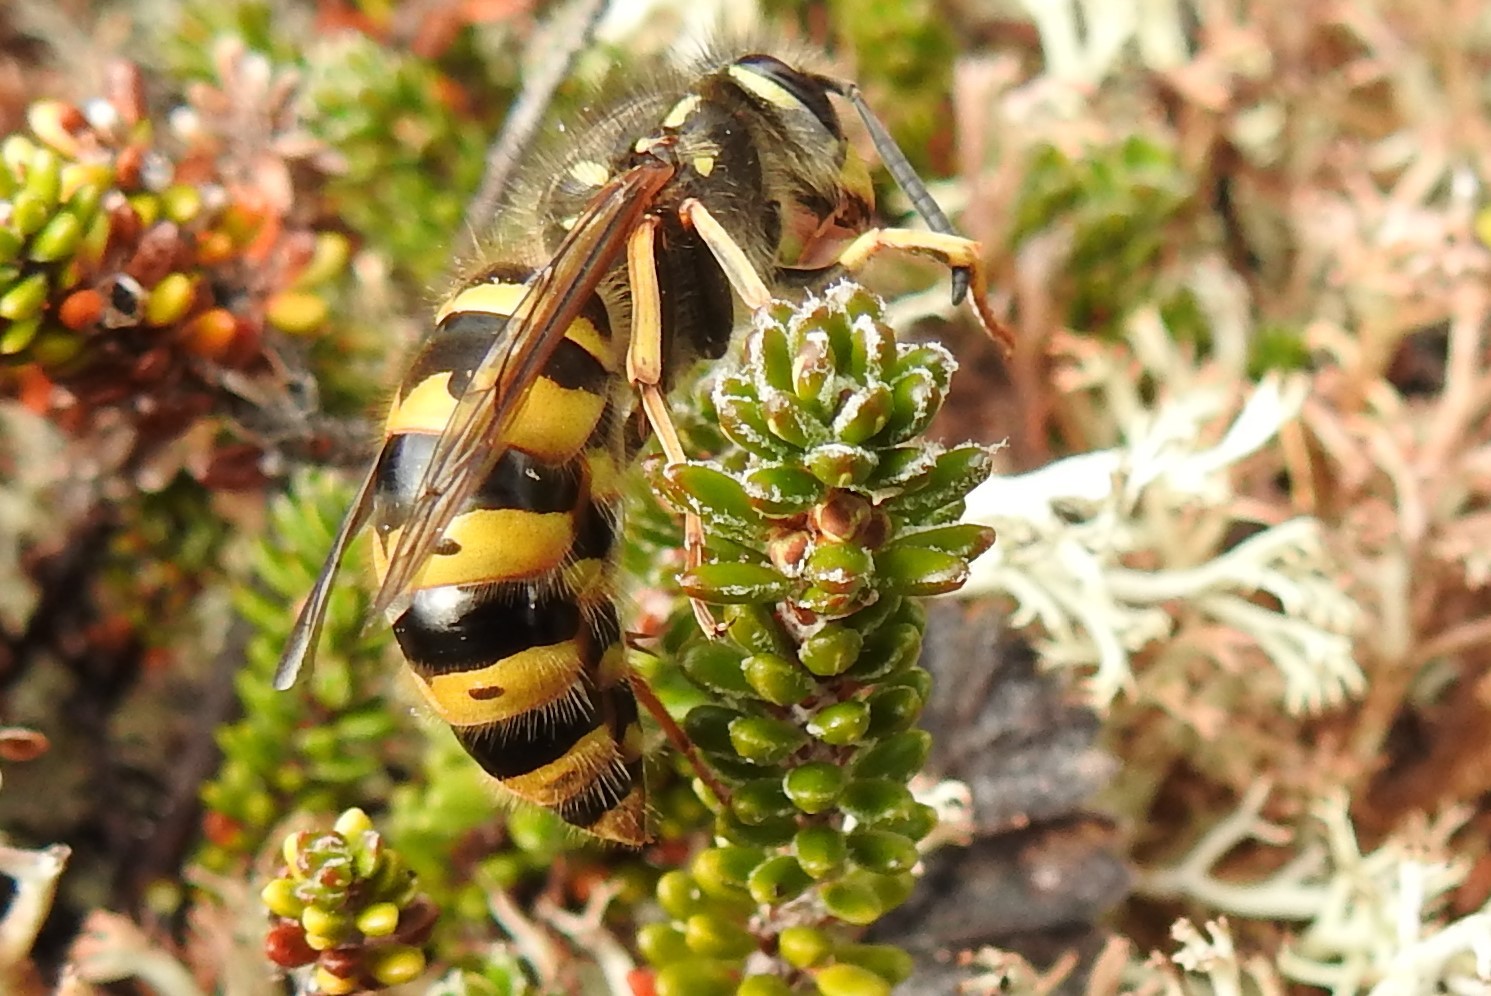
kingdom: Animalia
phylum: Arthropoda
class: Insecta
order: Hymenoptera
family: Vespidae
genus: Vespula
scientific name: Vespula vulgaris
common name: Common wasp
